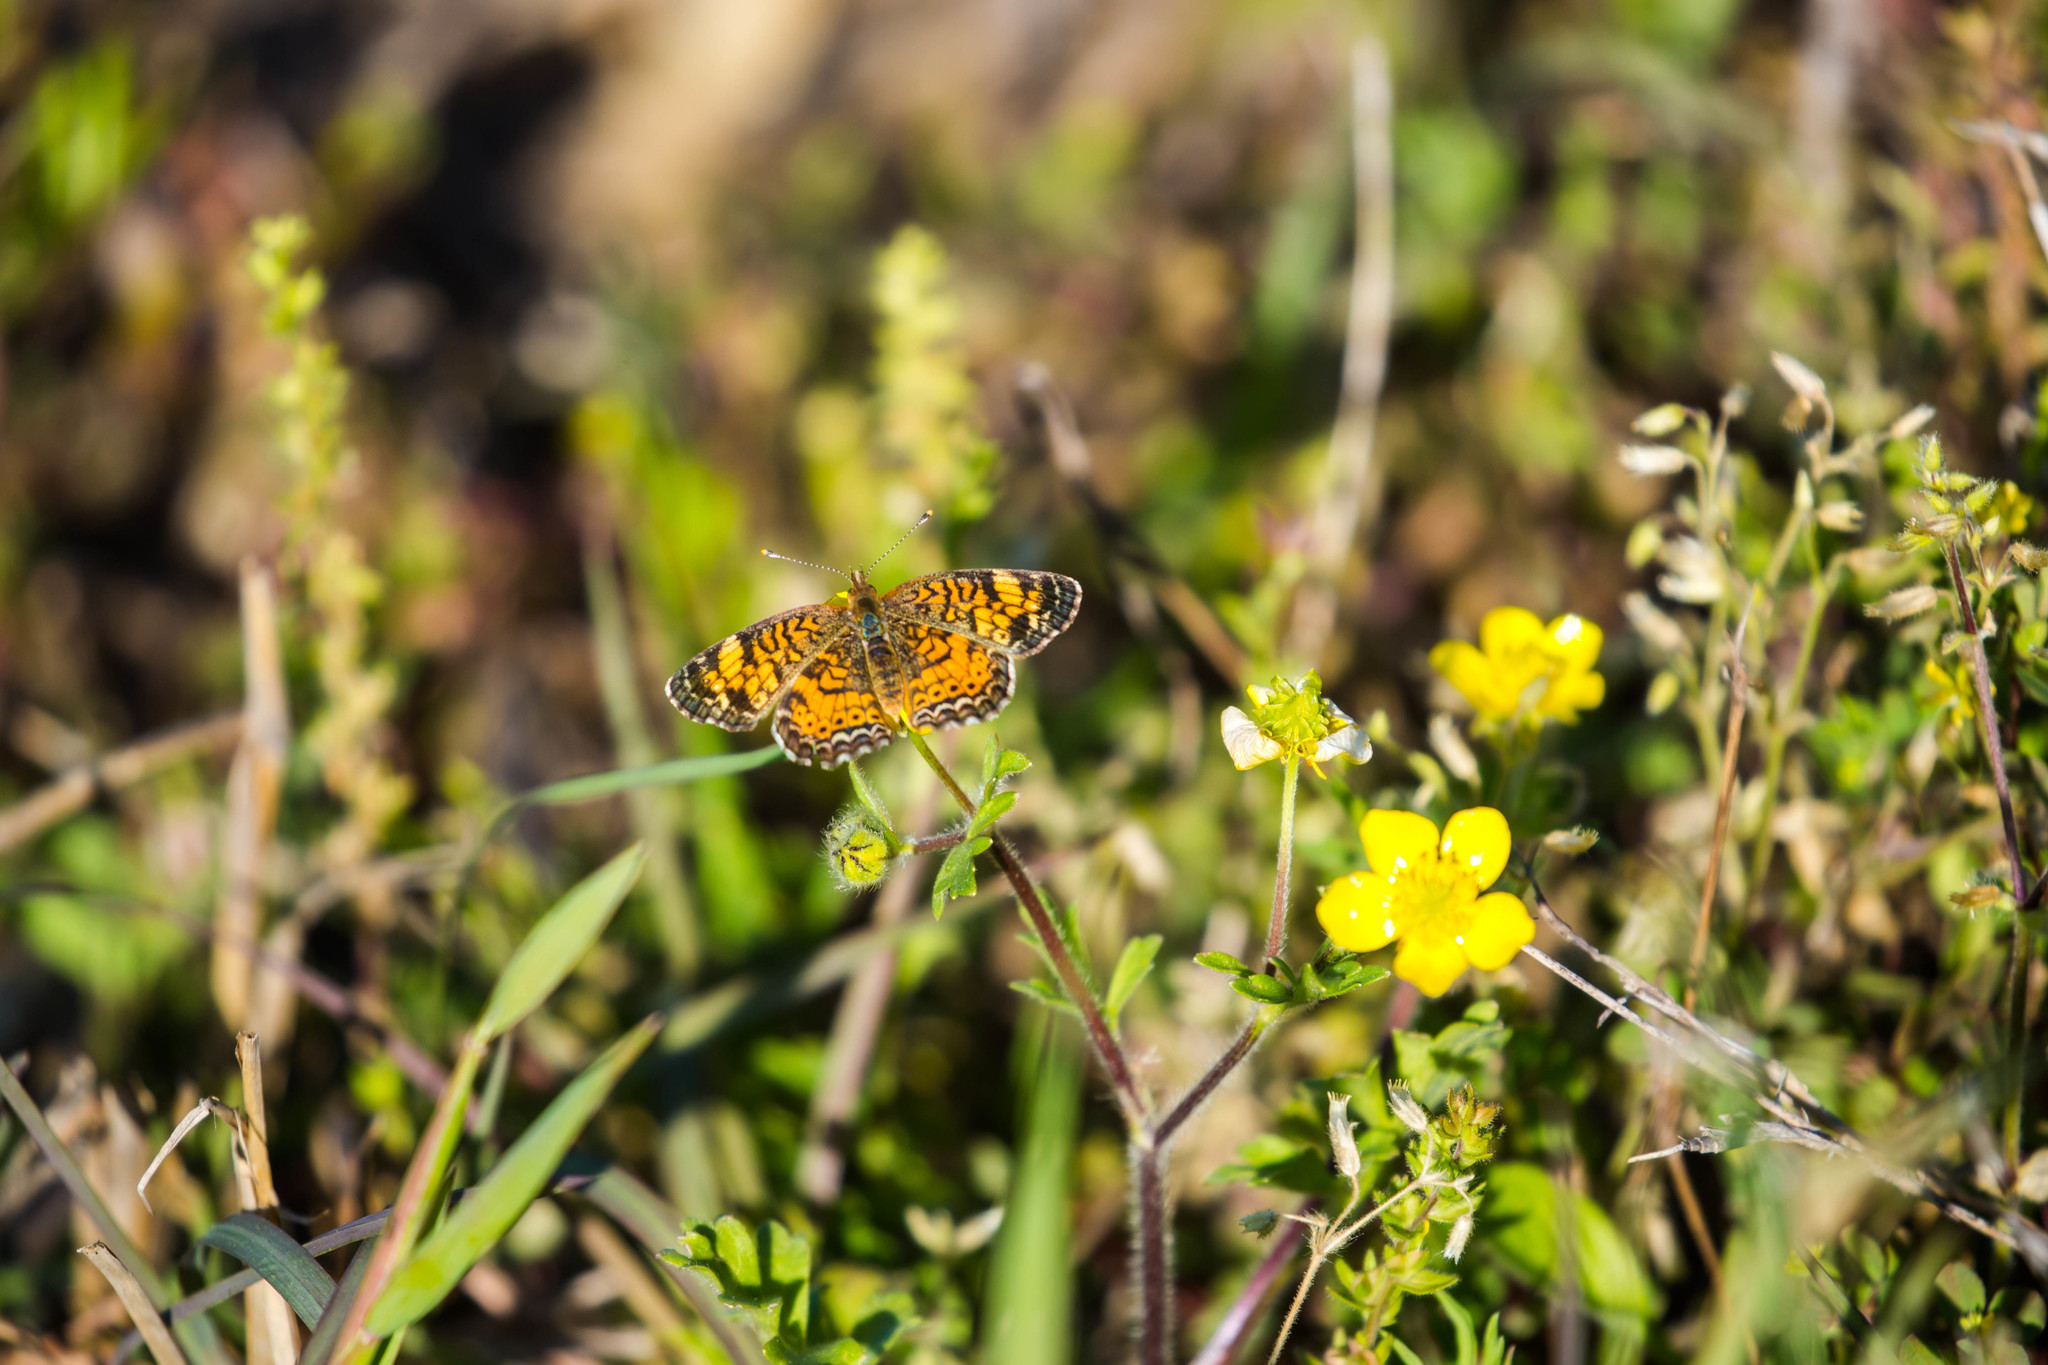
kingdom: Animalia
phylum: Arthropoda
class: Insecta
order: Lepidoptera
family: Nymphalidae
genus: Phyciodes
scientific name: Phyciodes tharos
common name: Pearl crescent
